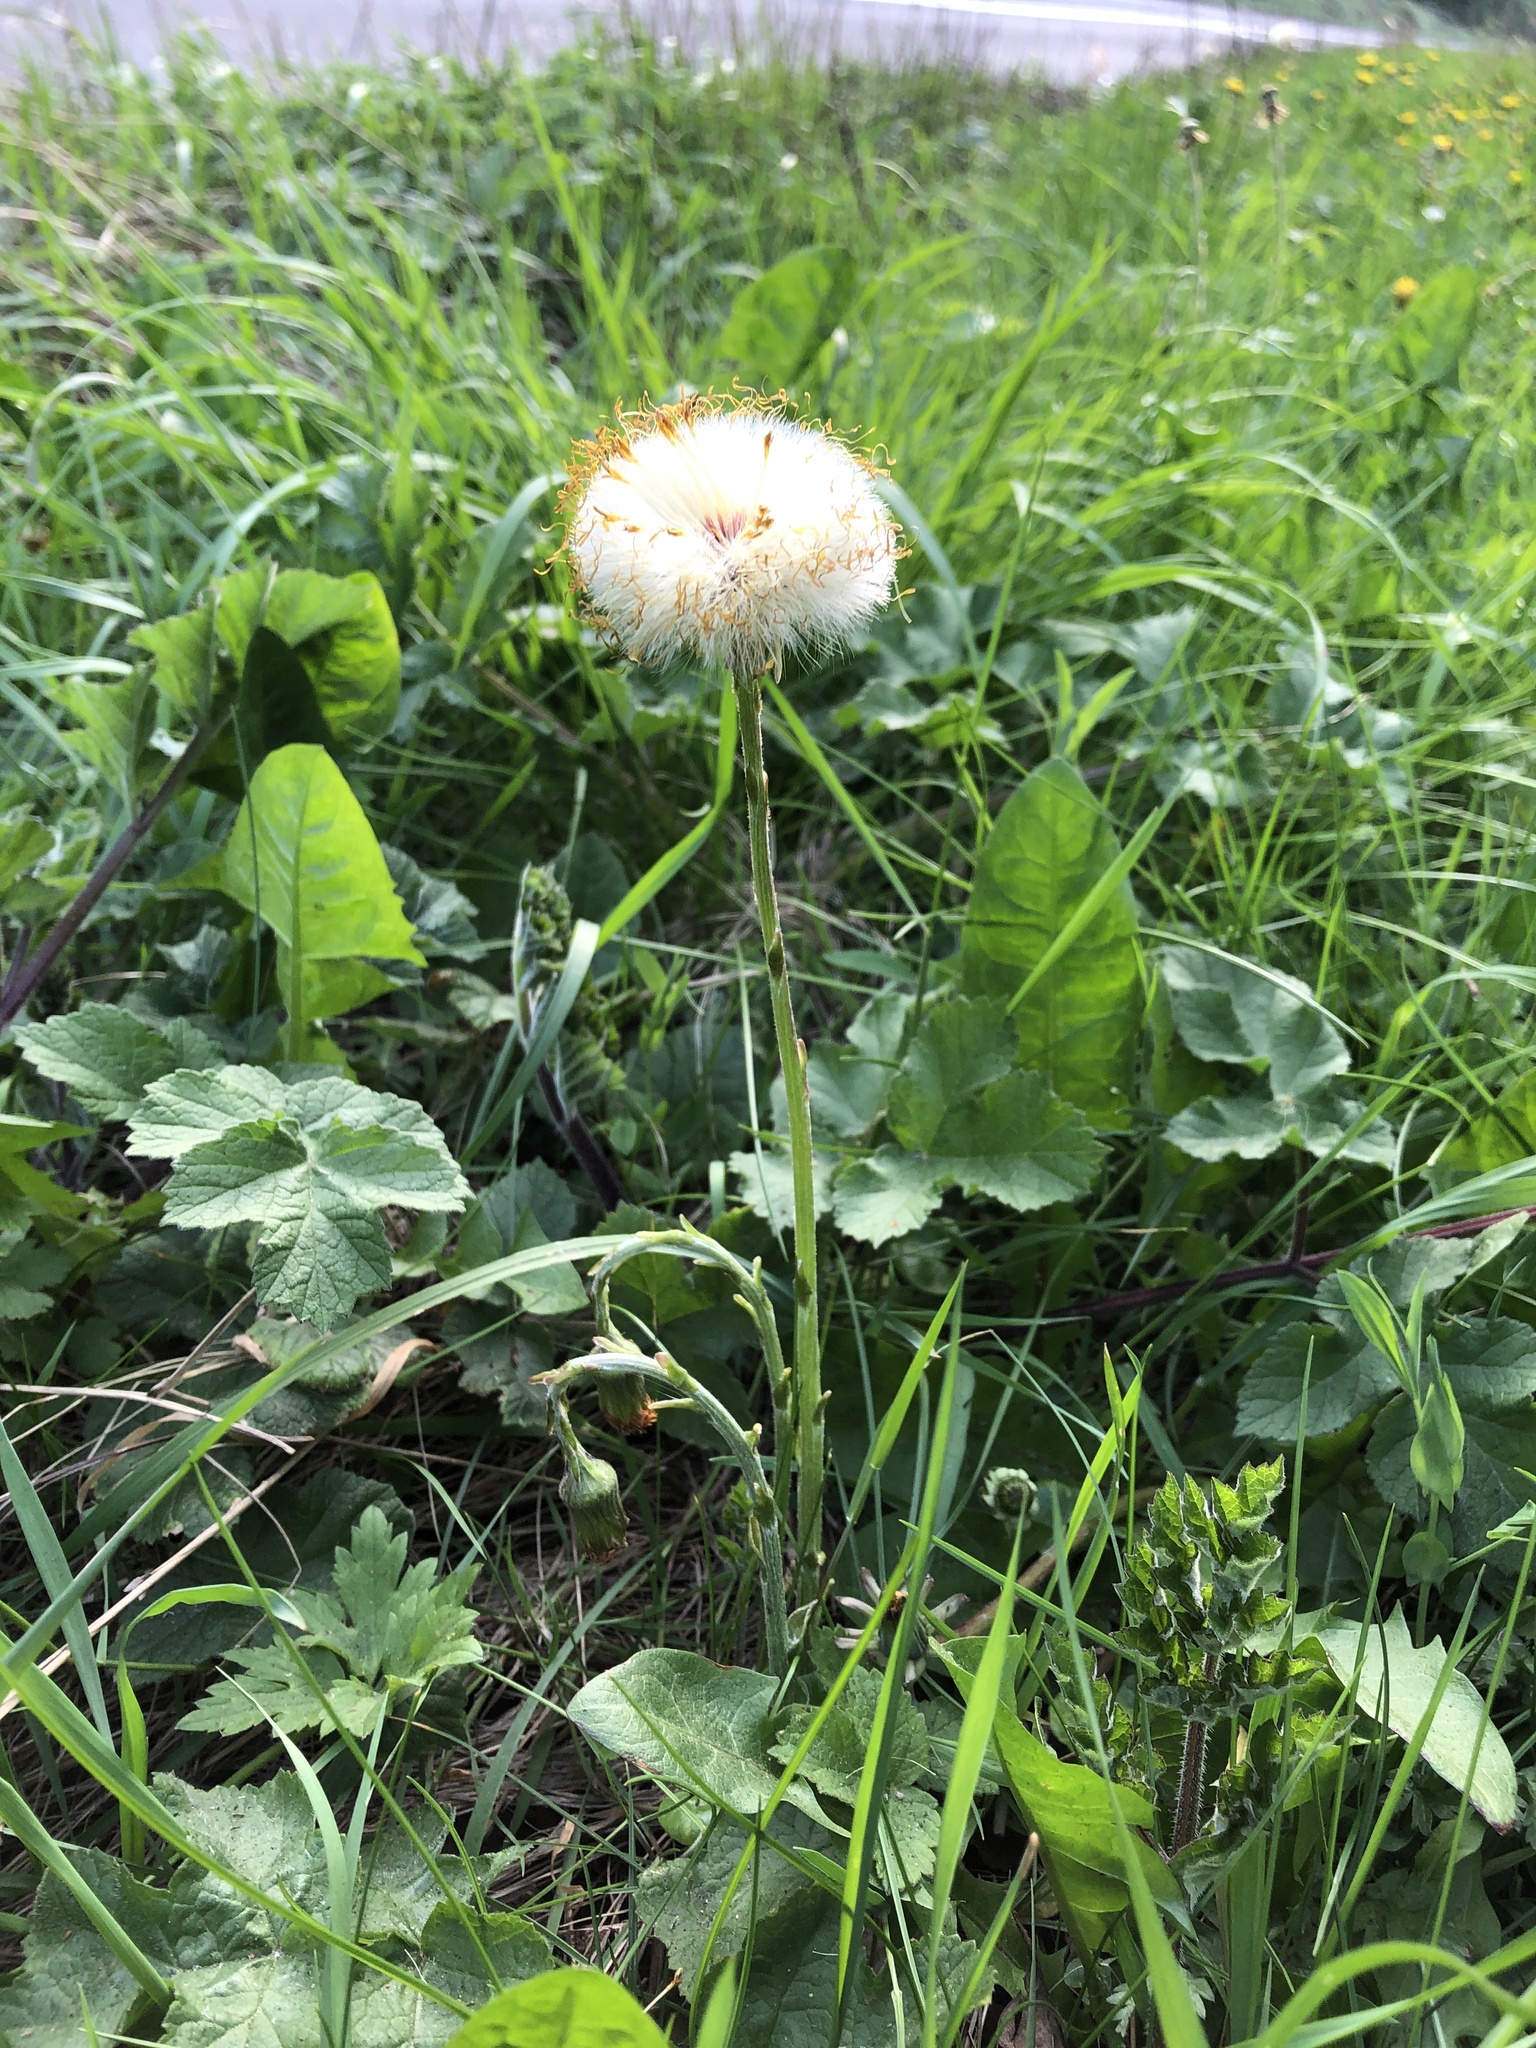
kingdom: Plantae
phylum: Tracheophyta
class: Magnoliopsida
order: Asterales
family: Asteraceae
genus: Tussilago
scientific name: Tussilago farfara
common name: Coltsfoot
